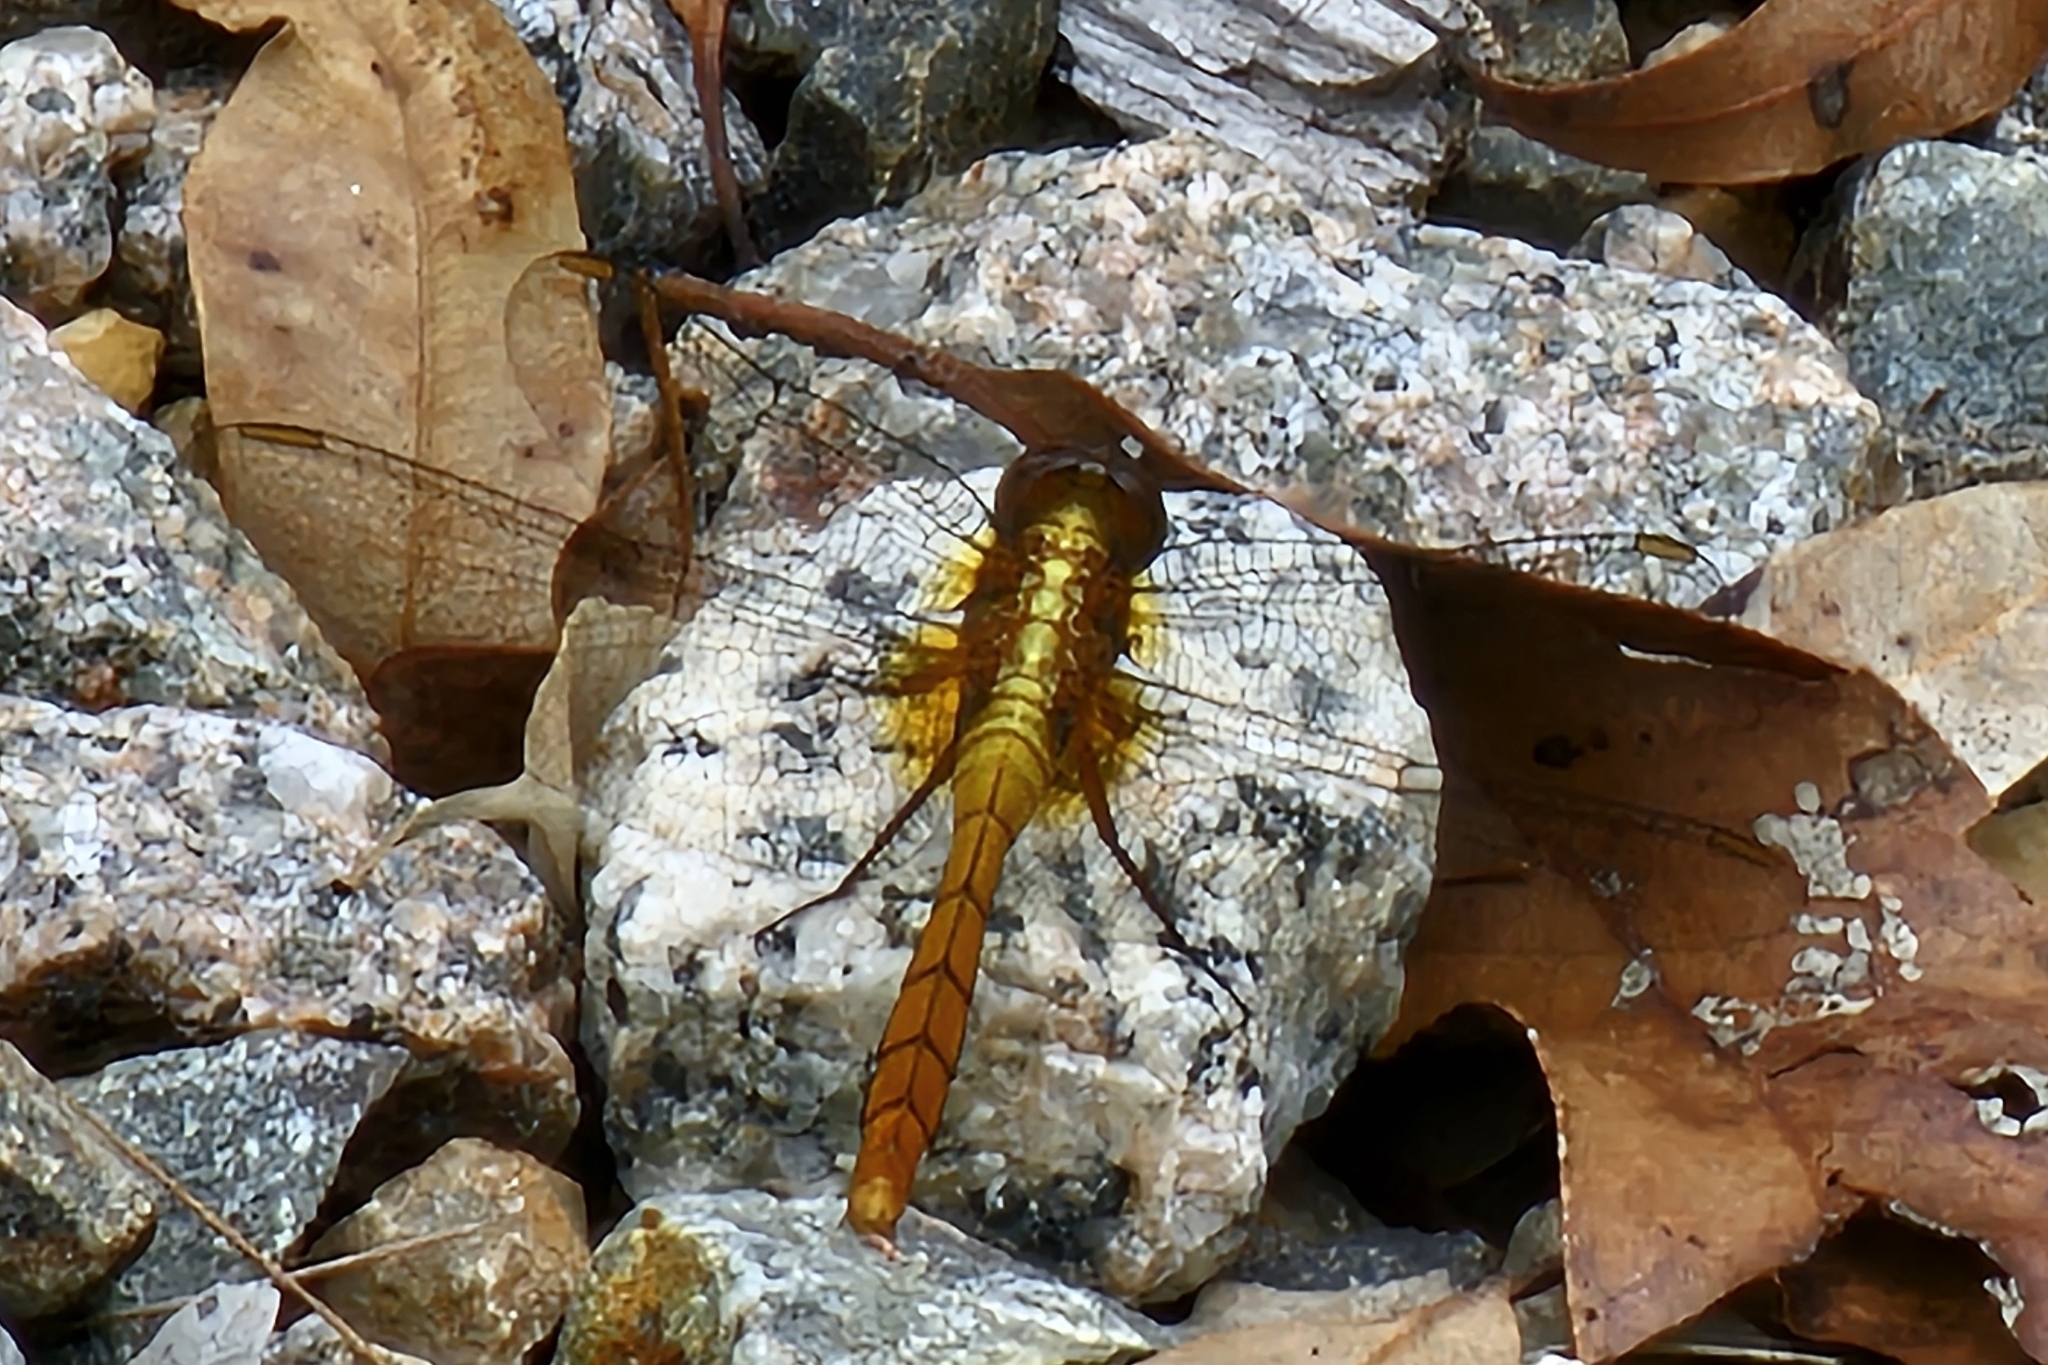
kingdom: Animalia
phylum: Arthropoda
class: Insecta
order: Odonata
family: Libellulidae
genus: Orthetrum
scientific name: Orthetrum villosovittatum
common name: Firery skimmer
